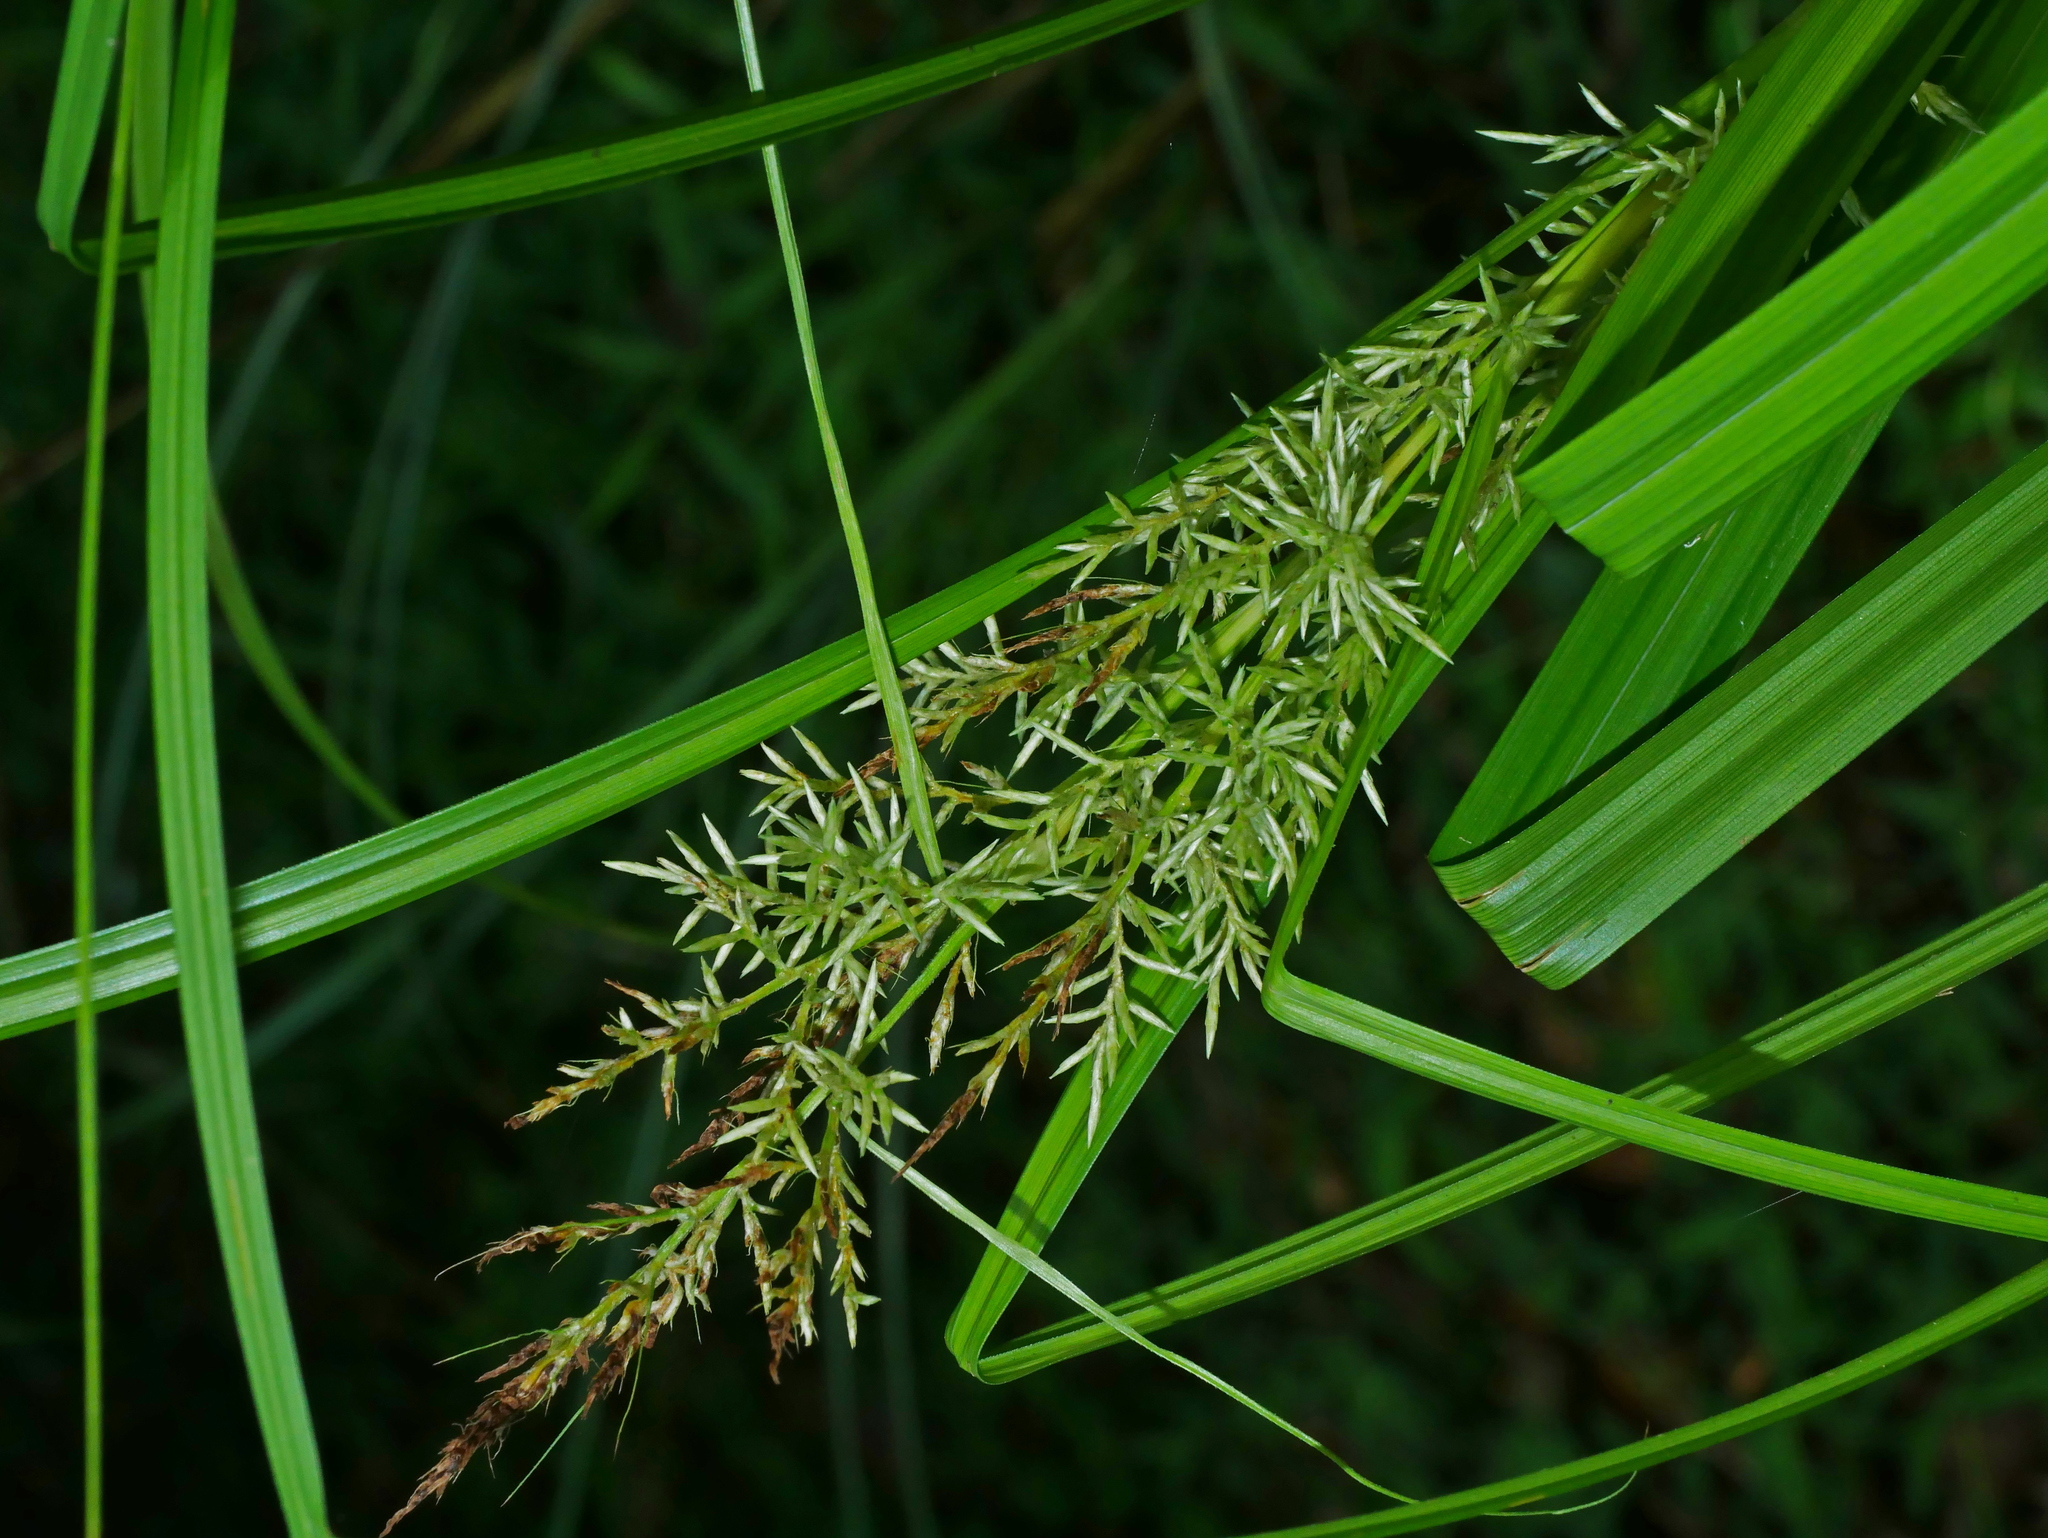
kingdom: Plantae
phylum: Tracheophyta
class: Liliopsida
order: Poales
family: Cyperaceae
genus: Carex
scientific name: Carex cruciata
